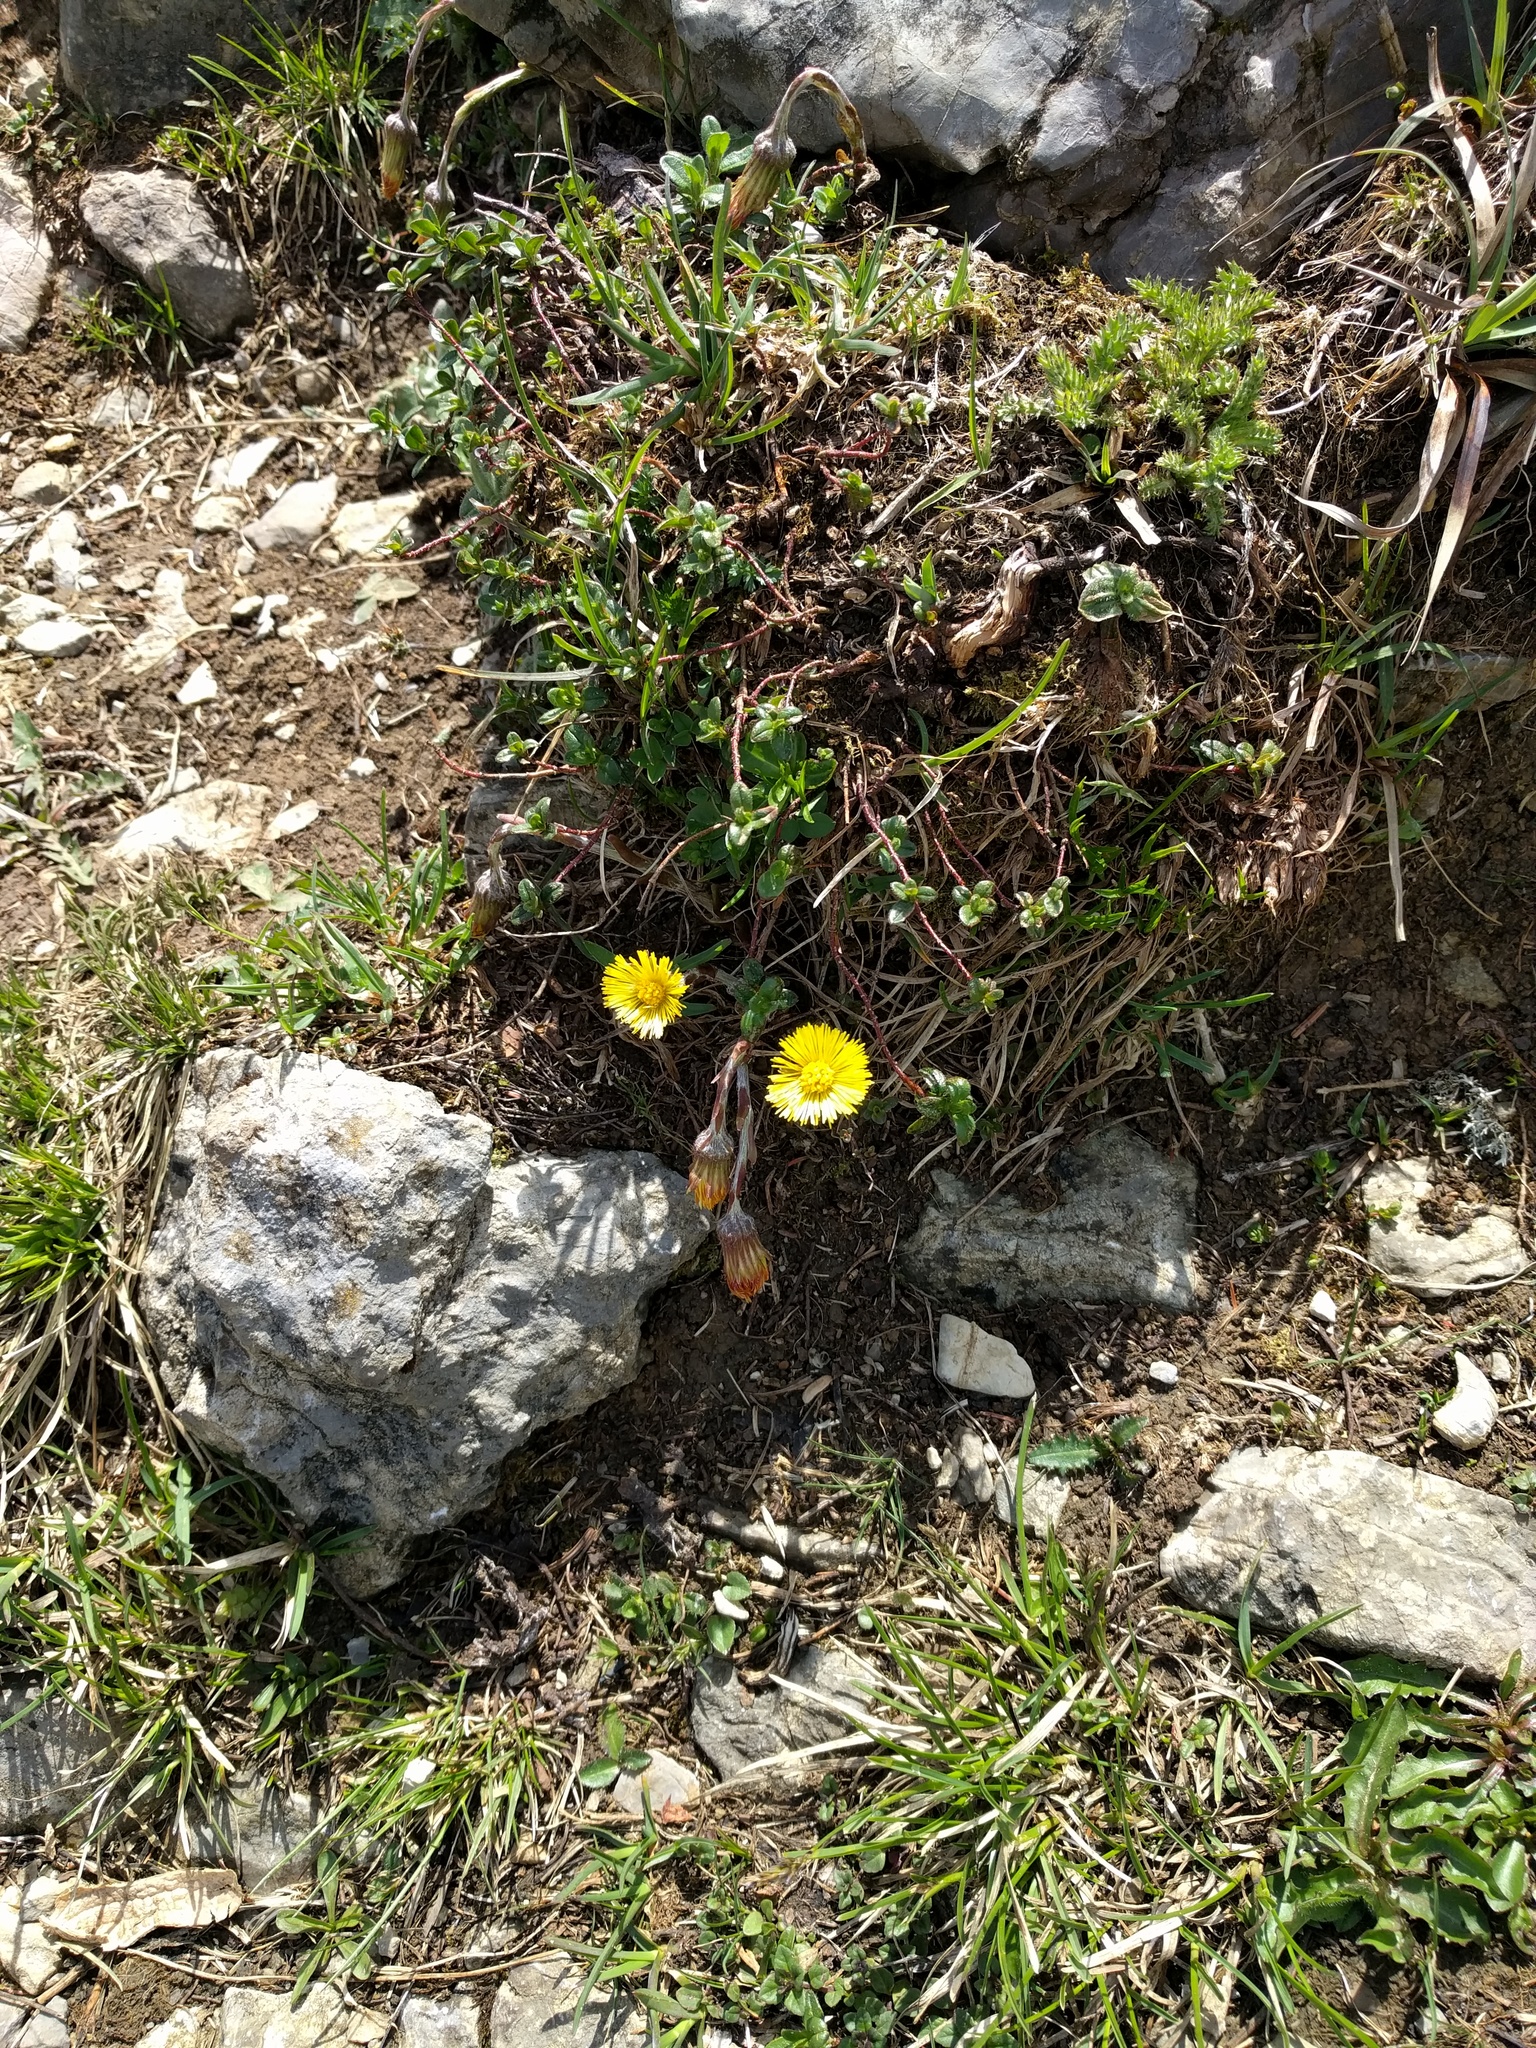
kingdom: Plantae
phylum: Tracheophyta
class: Magnoliopsida
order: Asterales
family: Asteraceae
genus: Tussilago
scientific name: Tussilago farfara
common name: Coltsfoot
